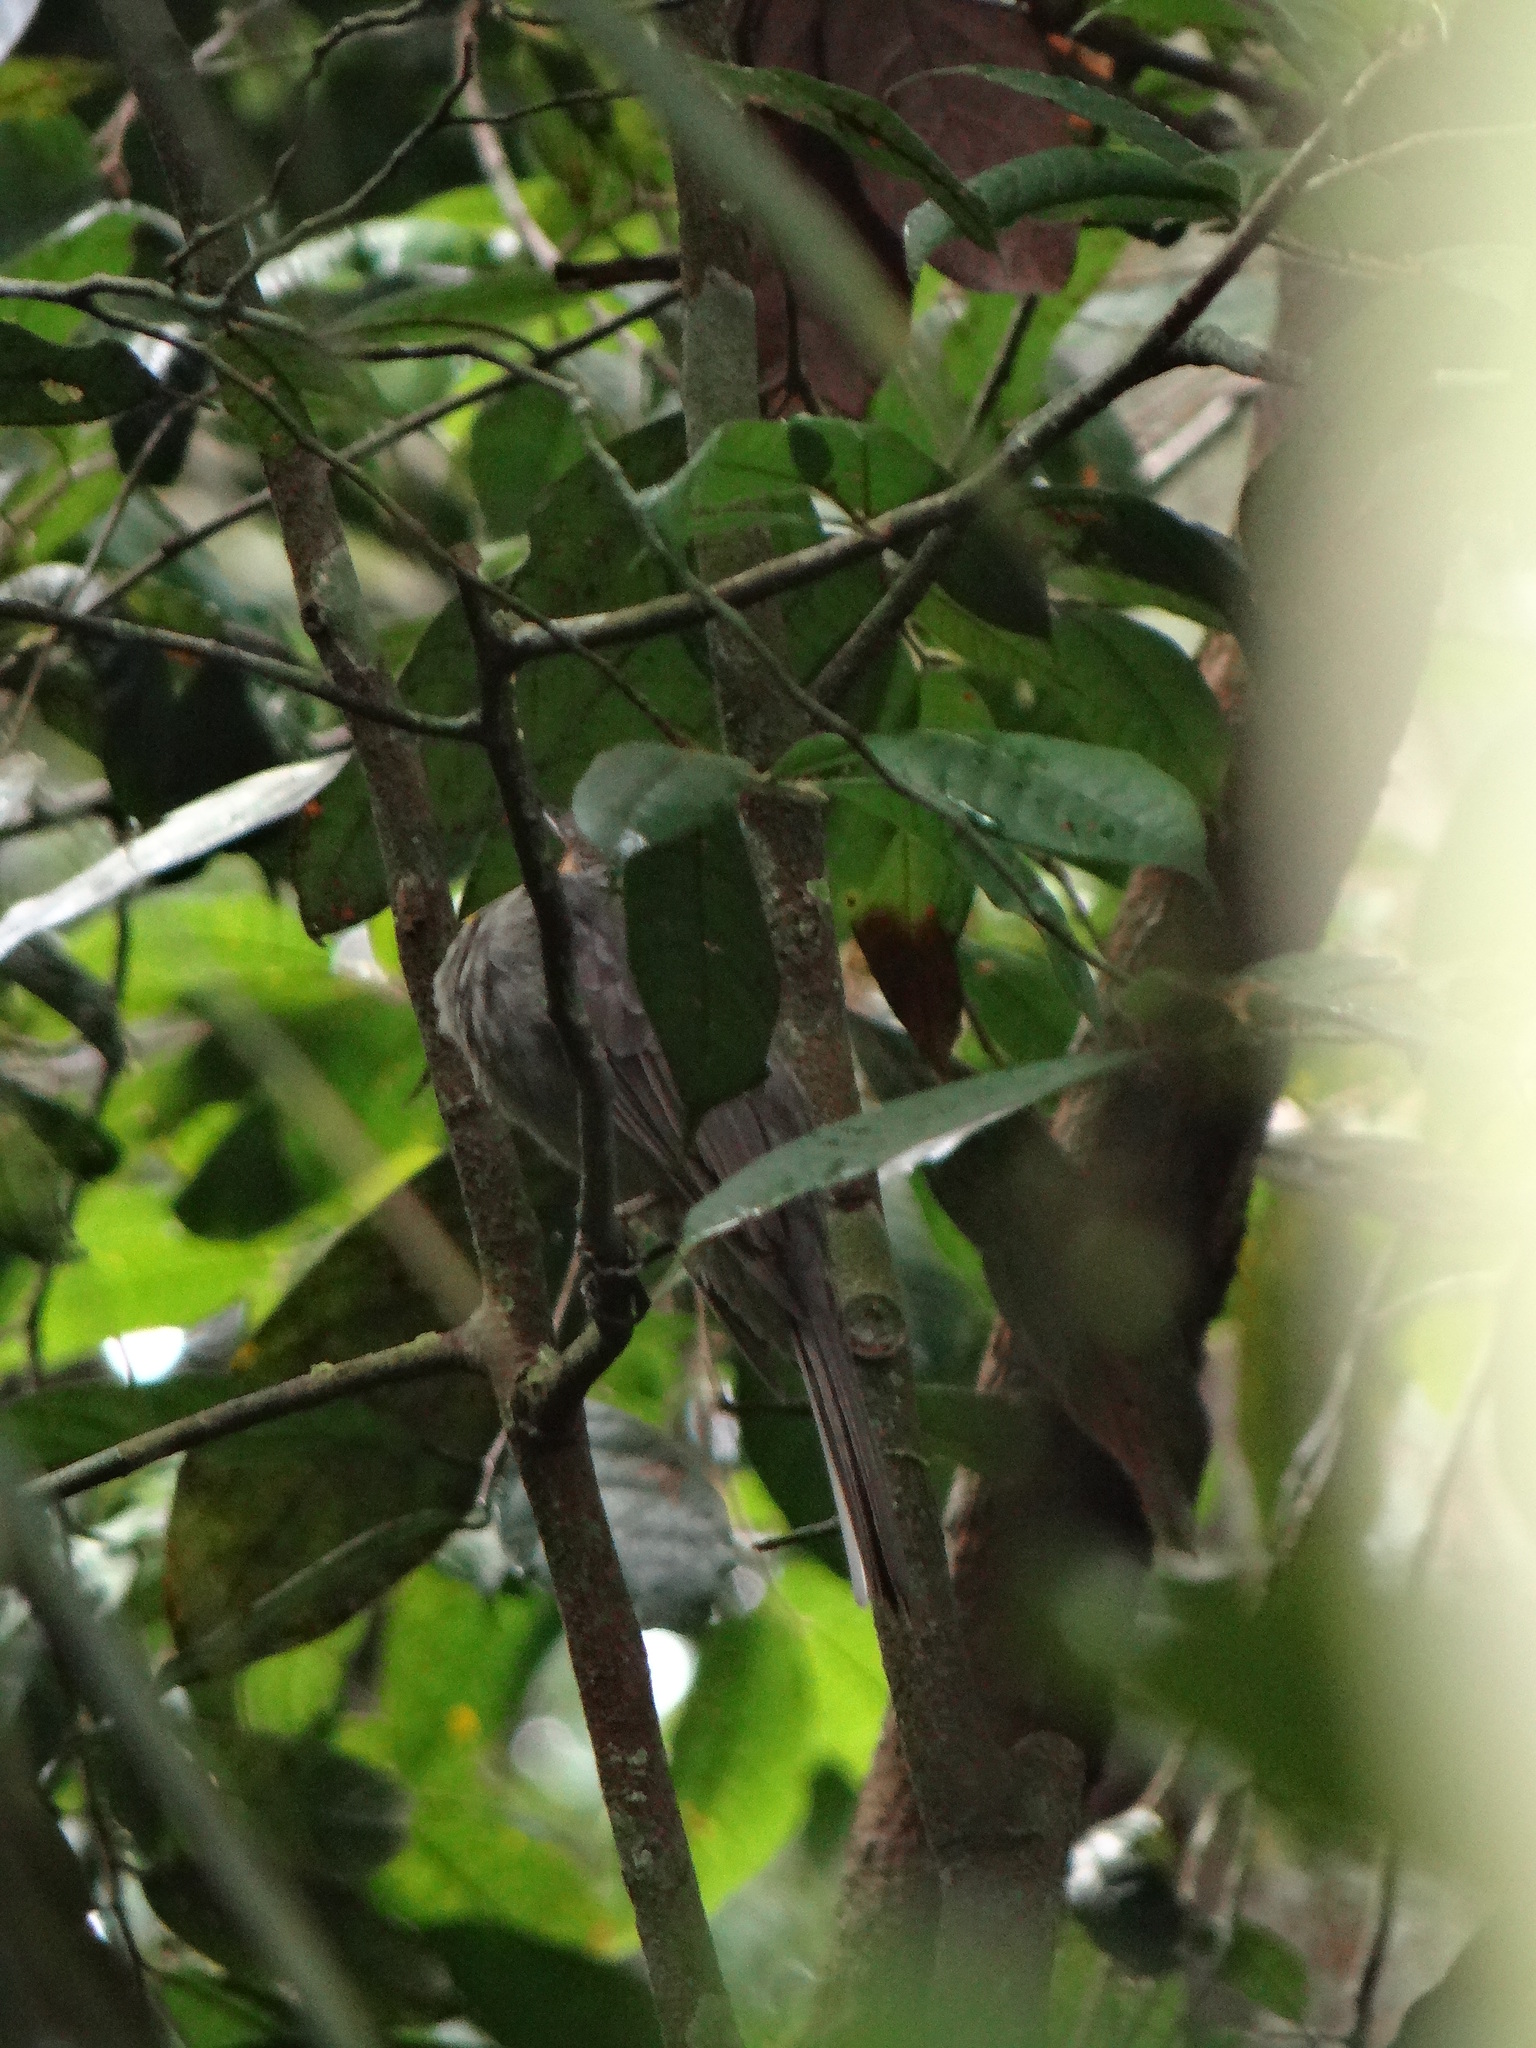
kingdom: Animalia
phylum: Chordata
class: Aves
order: Passeriformes
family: Cotingidae
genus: Lipaugus
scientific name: Lipaugus vociferans
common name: Screaming piha
